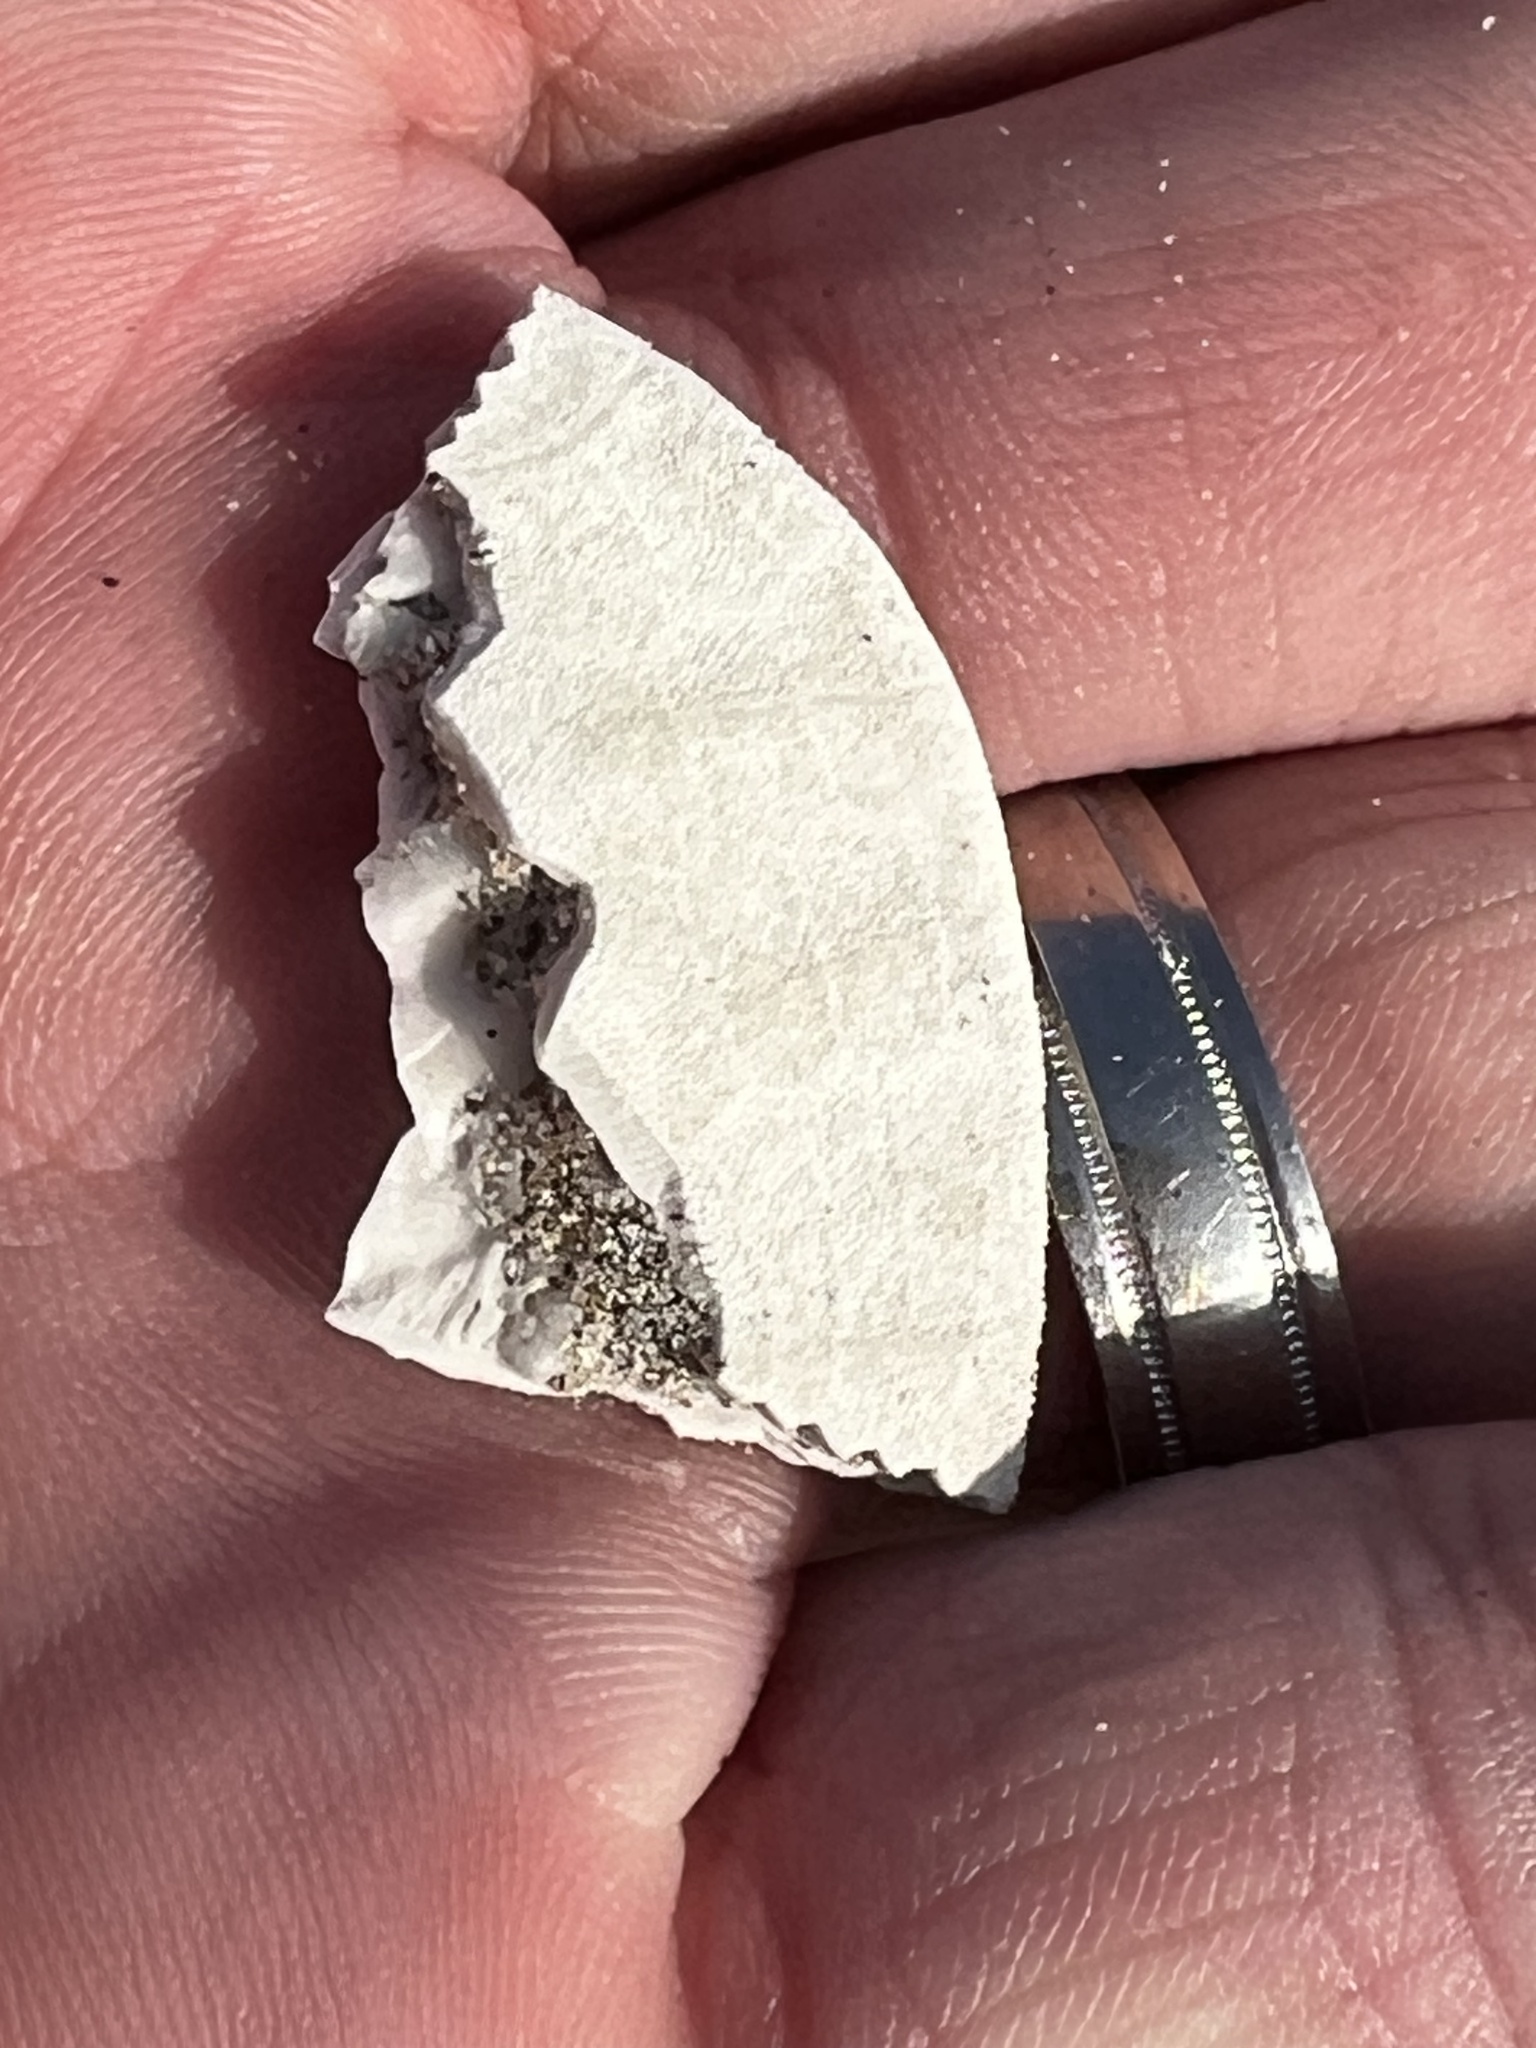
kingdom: Animalia
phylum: Echinodermata
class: Echinoidea
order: Echinolampadacea
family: Dendrasteridae
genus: Dendraster
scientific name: Dendraster excentricus
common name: Eccentric sand dollar sea urchin
